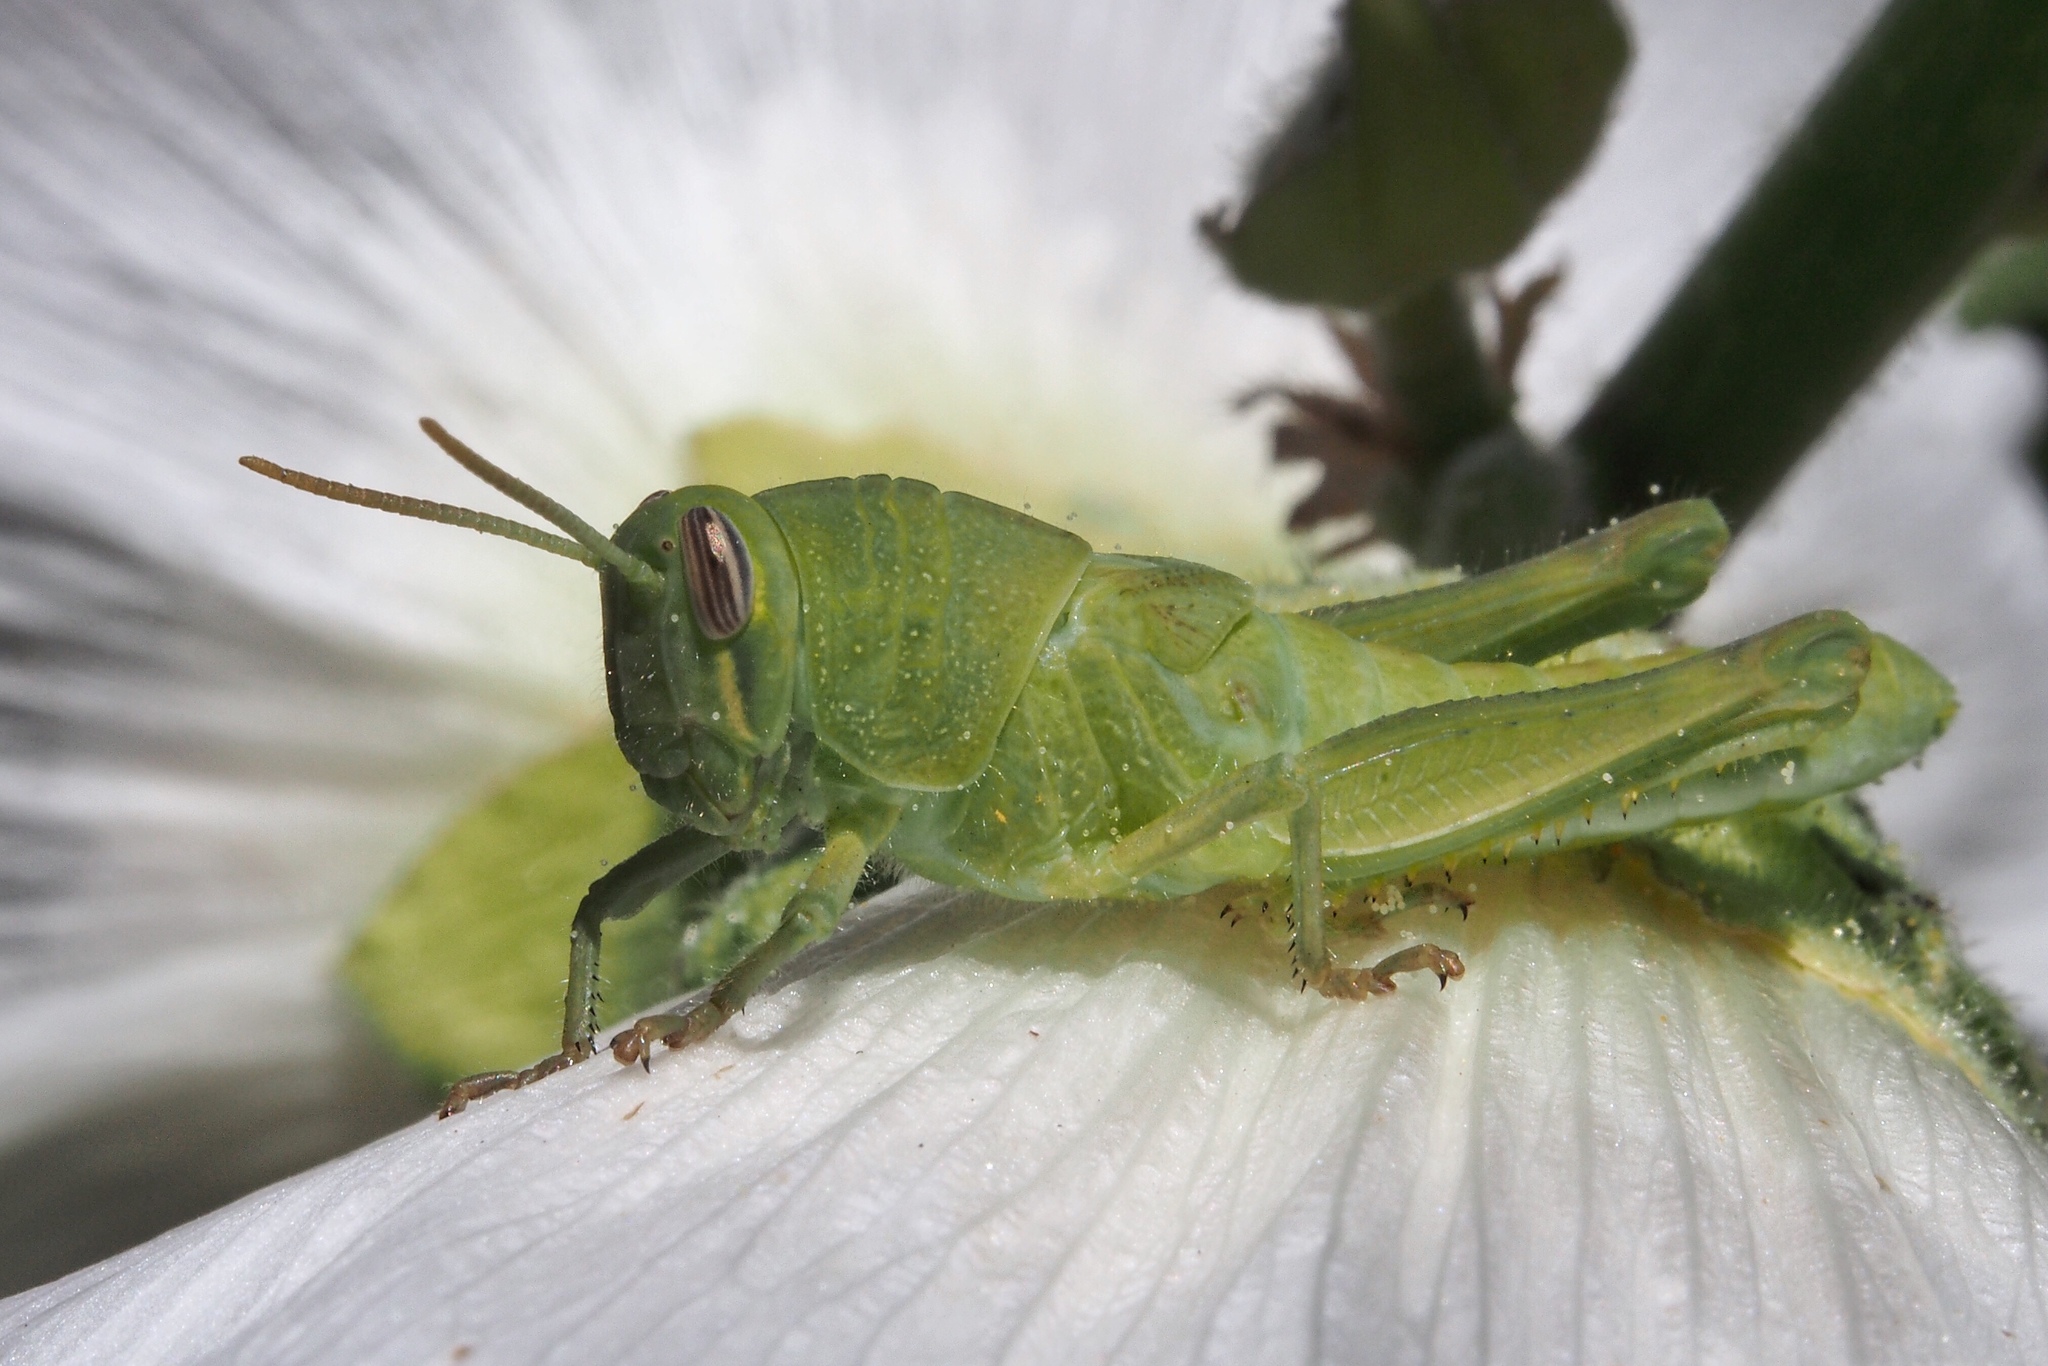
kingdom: Animalia
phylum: Arthropoda
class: Insecta
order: Orthoptera
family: Acrididae
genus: Schistocerca
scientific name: Schistocerca nitens
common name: Vagrant grasshopper
